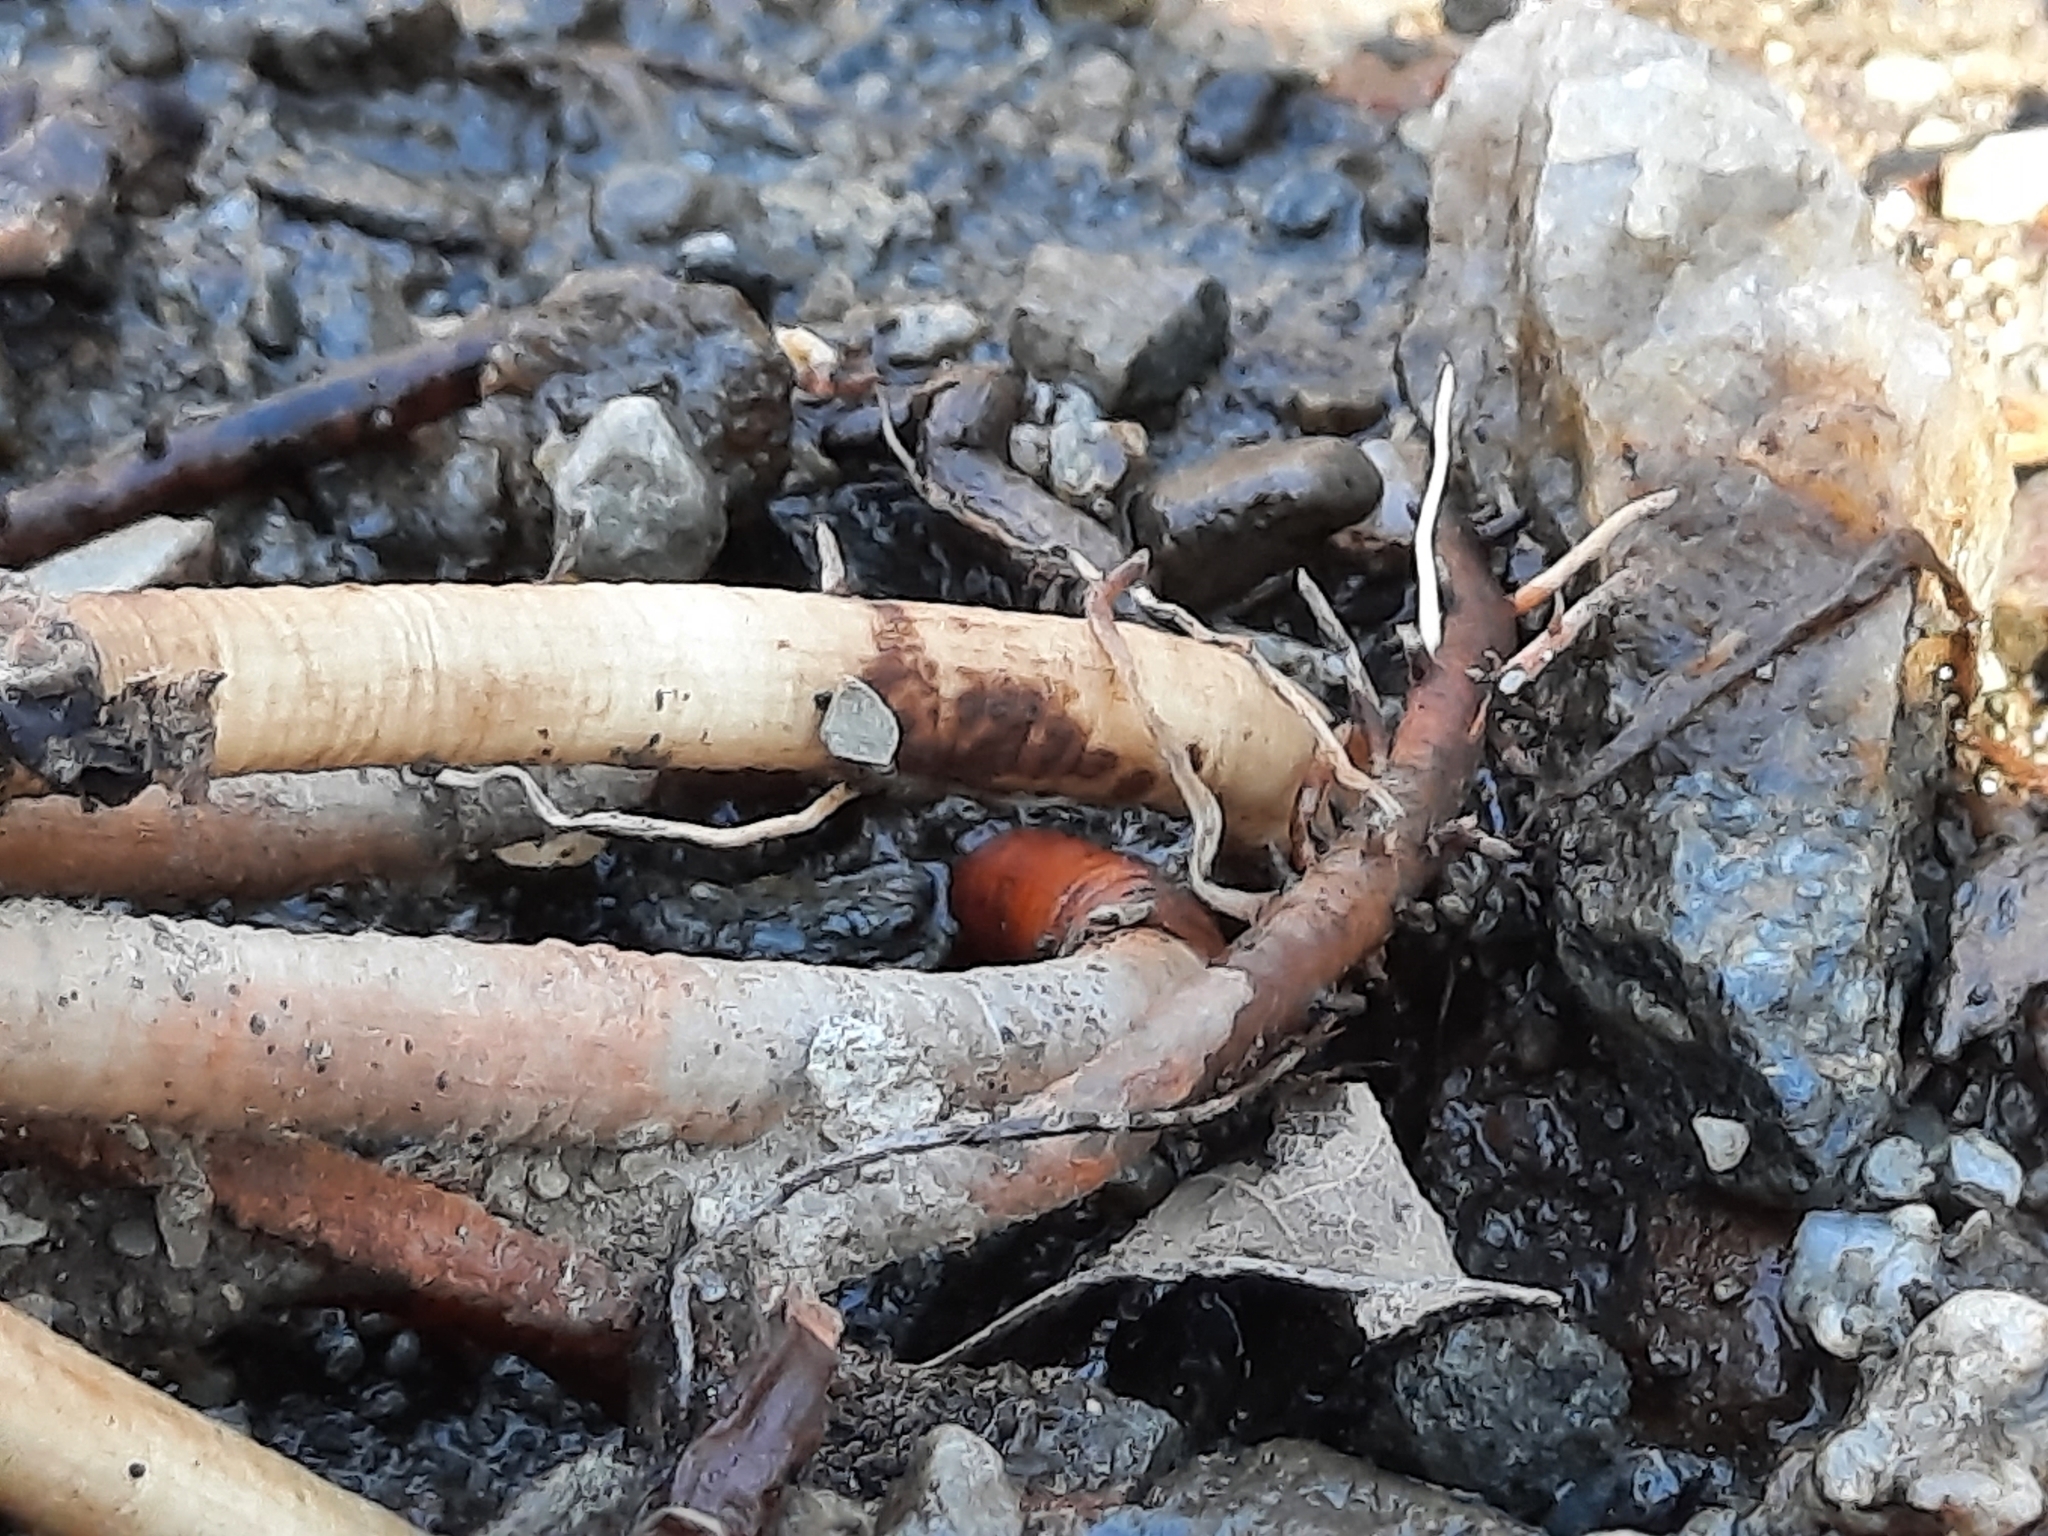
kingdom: Plantae
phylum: Tracheophyta
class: Liliopsida
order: Alismatales
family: Araceae
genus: Symplocarpus
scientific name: Symplocarpus foetidus
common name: Eastern skunk cabbage
